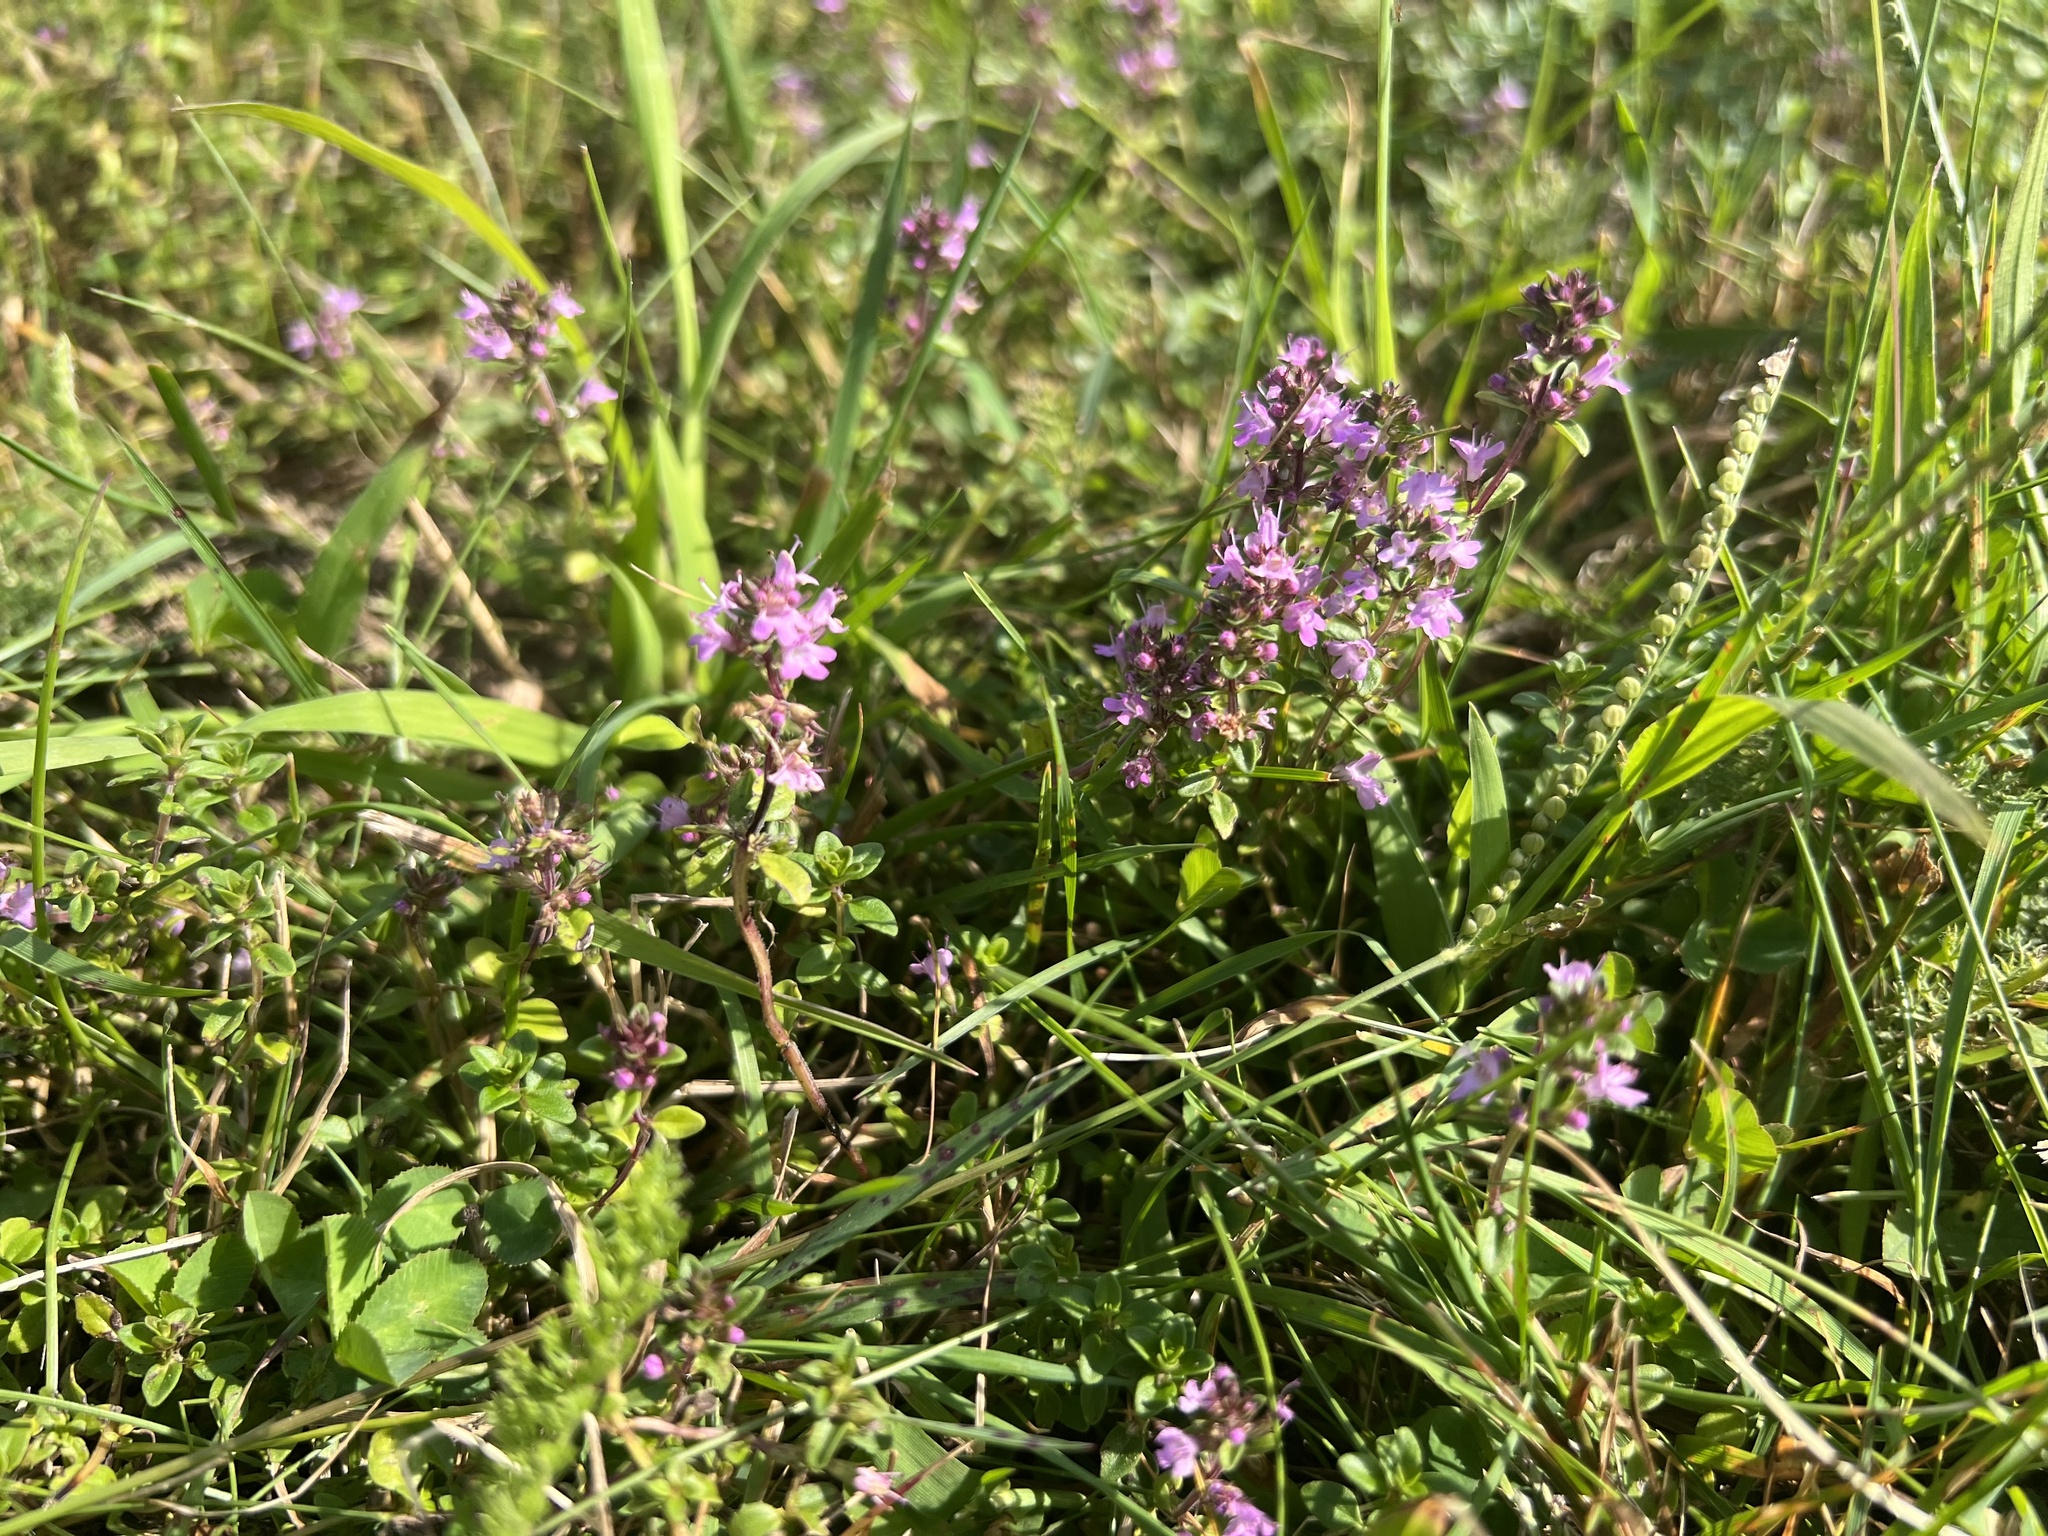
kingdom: Plantae
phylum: Tracheophyta
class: Magnoliopsida
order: Lamiales
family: Lamiaceae
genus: Thymus
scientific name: Thymus pulegioides
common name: Large thyme
